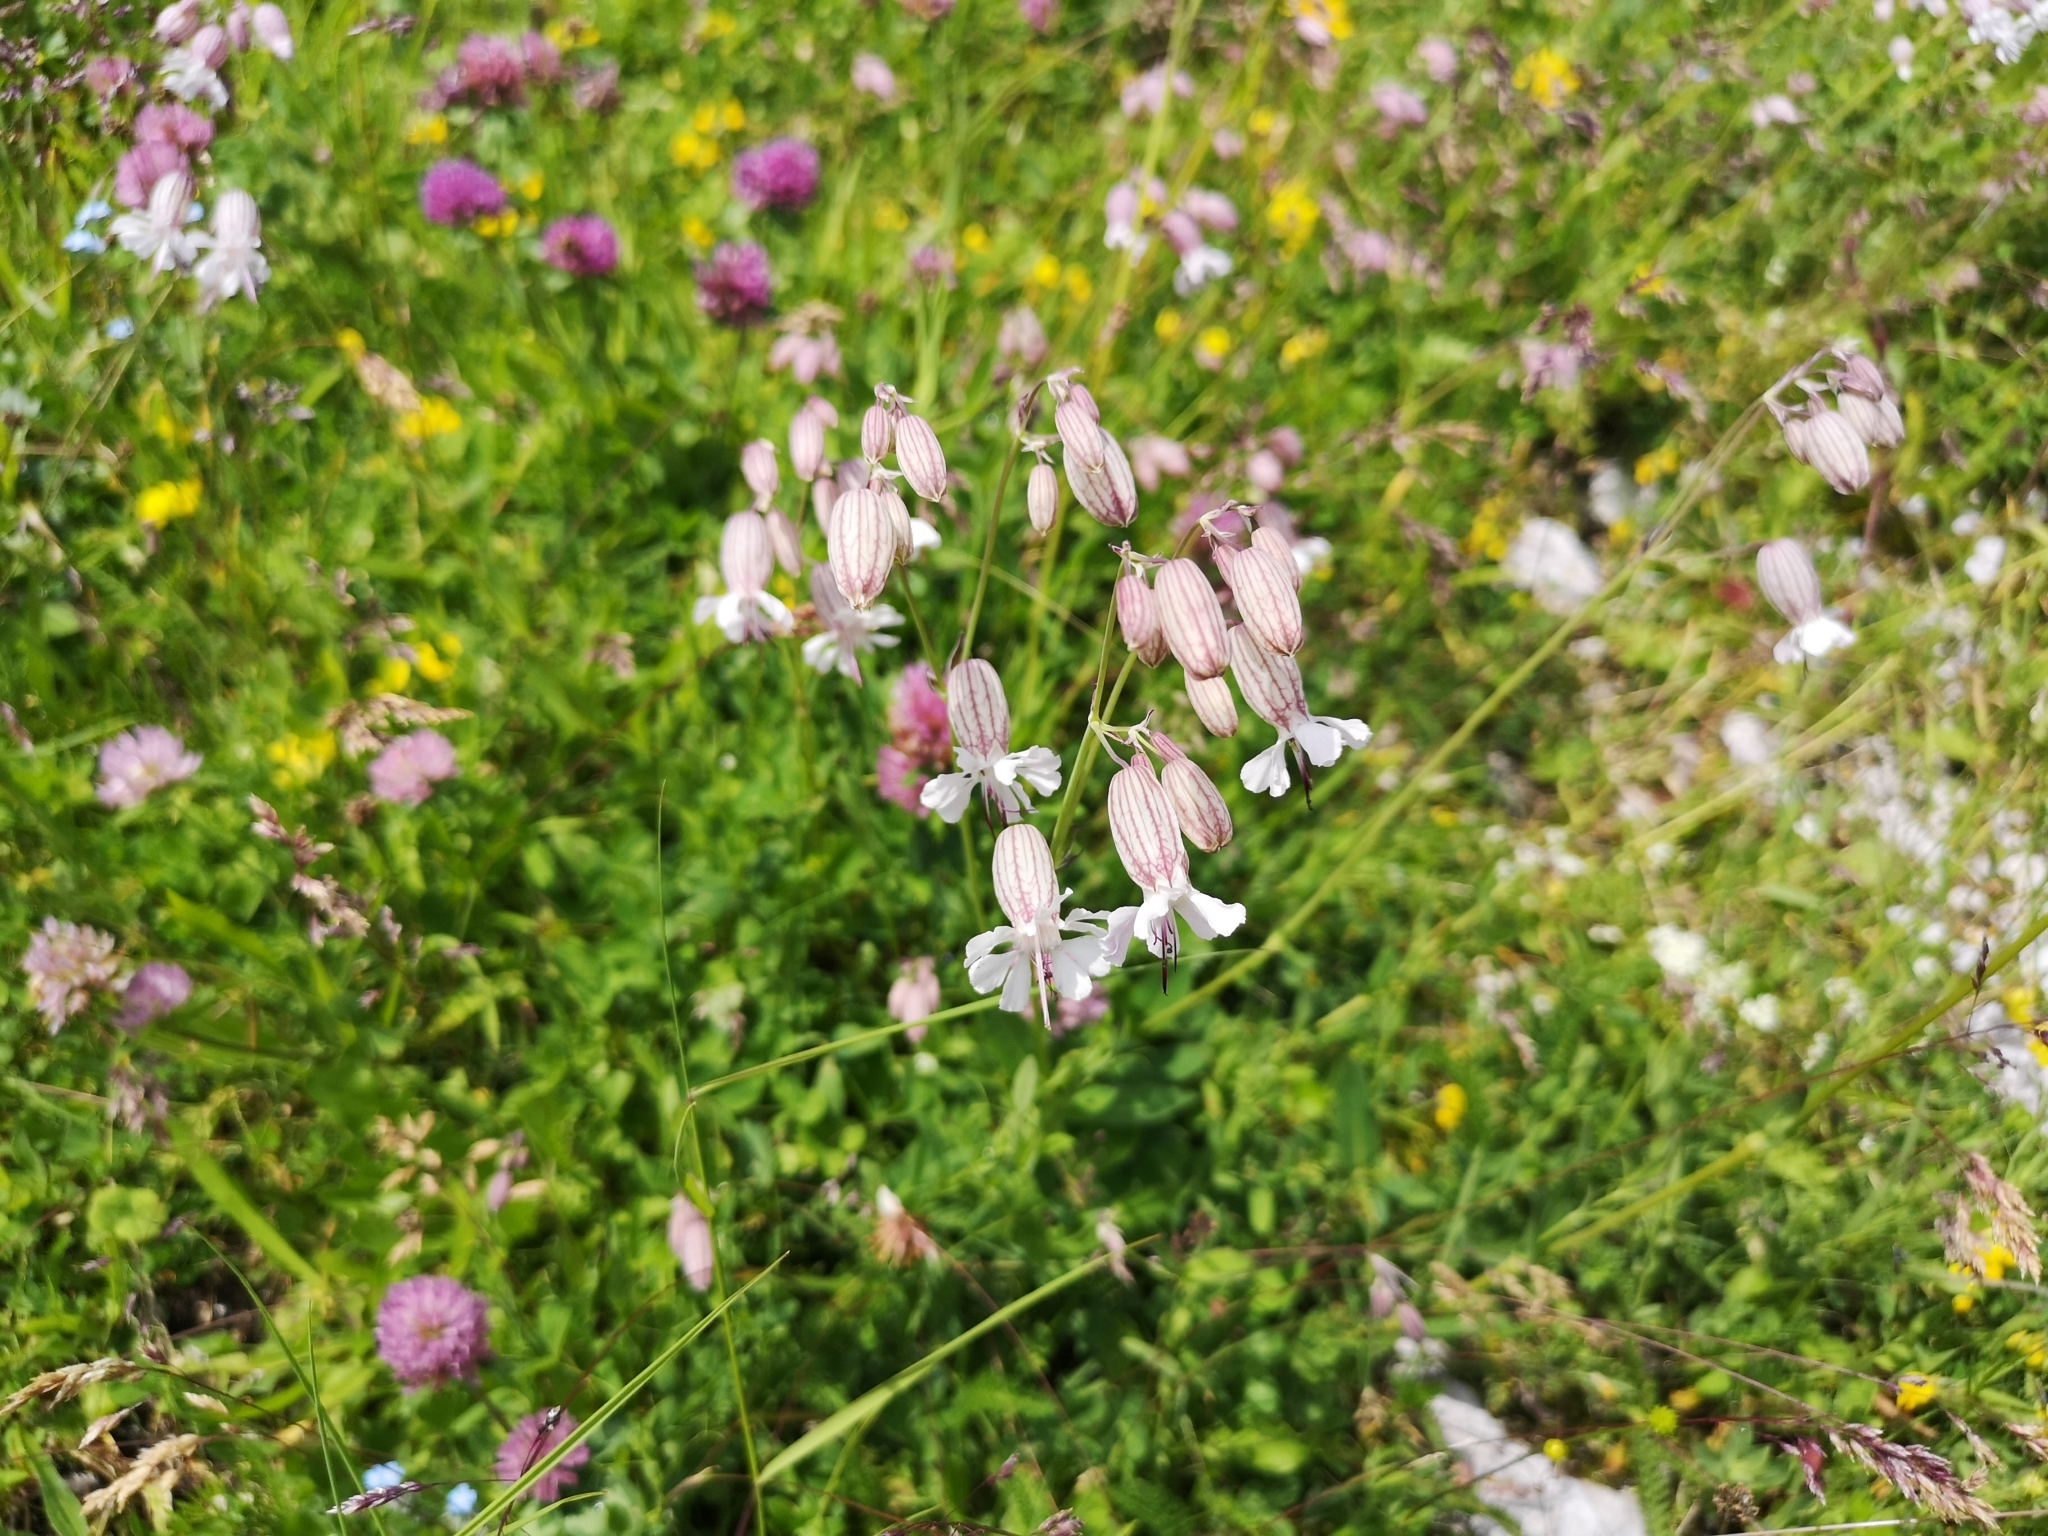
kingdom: Plantae
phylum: Tracheophyta
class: Magnoliopsida
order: Caryophyllales
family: Caryophyllaceae
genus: Silene
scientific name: Silene vulgaris
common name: Bladder campion
